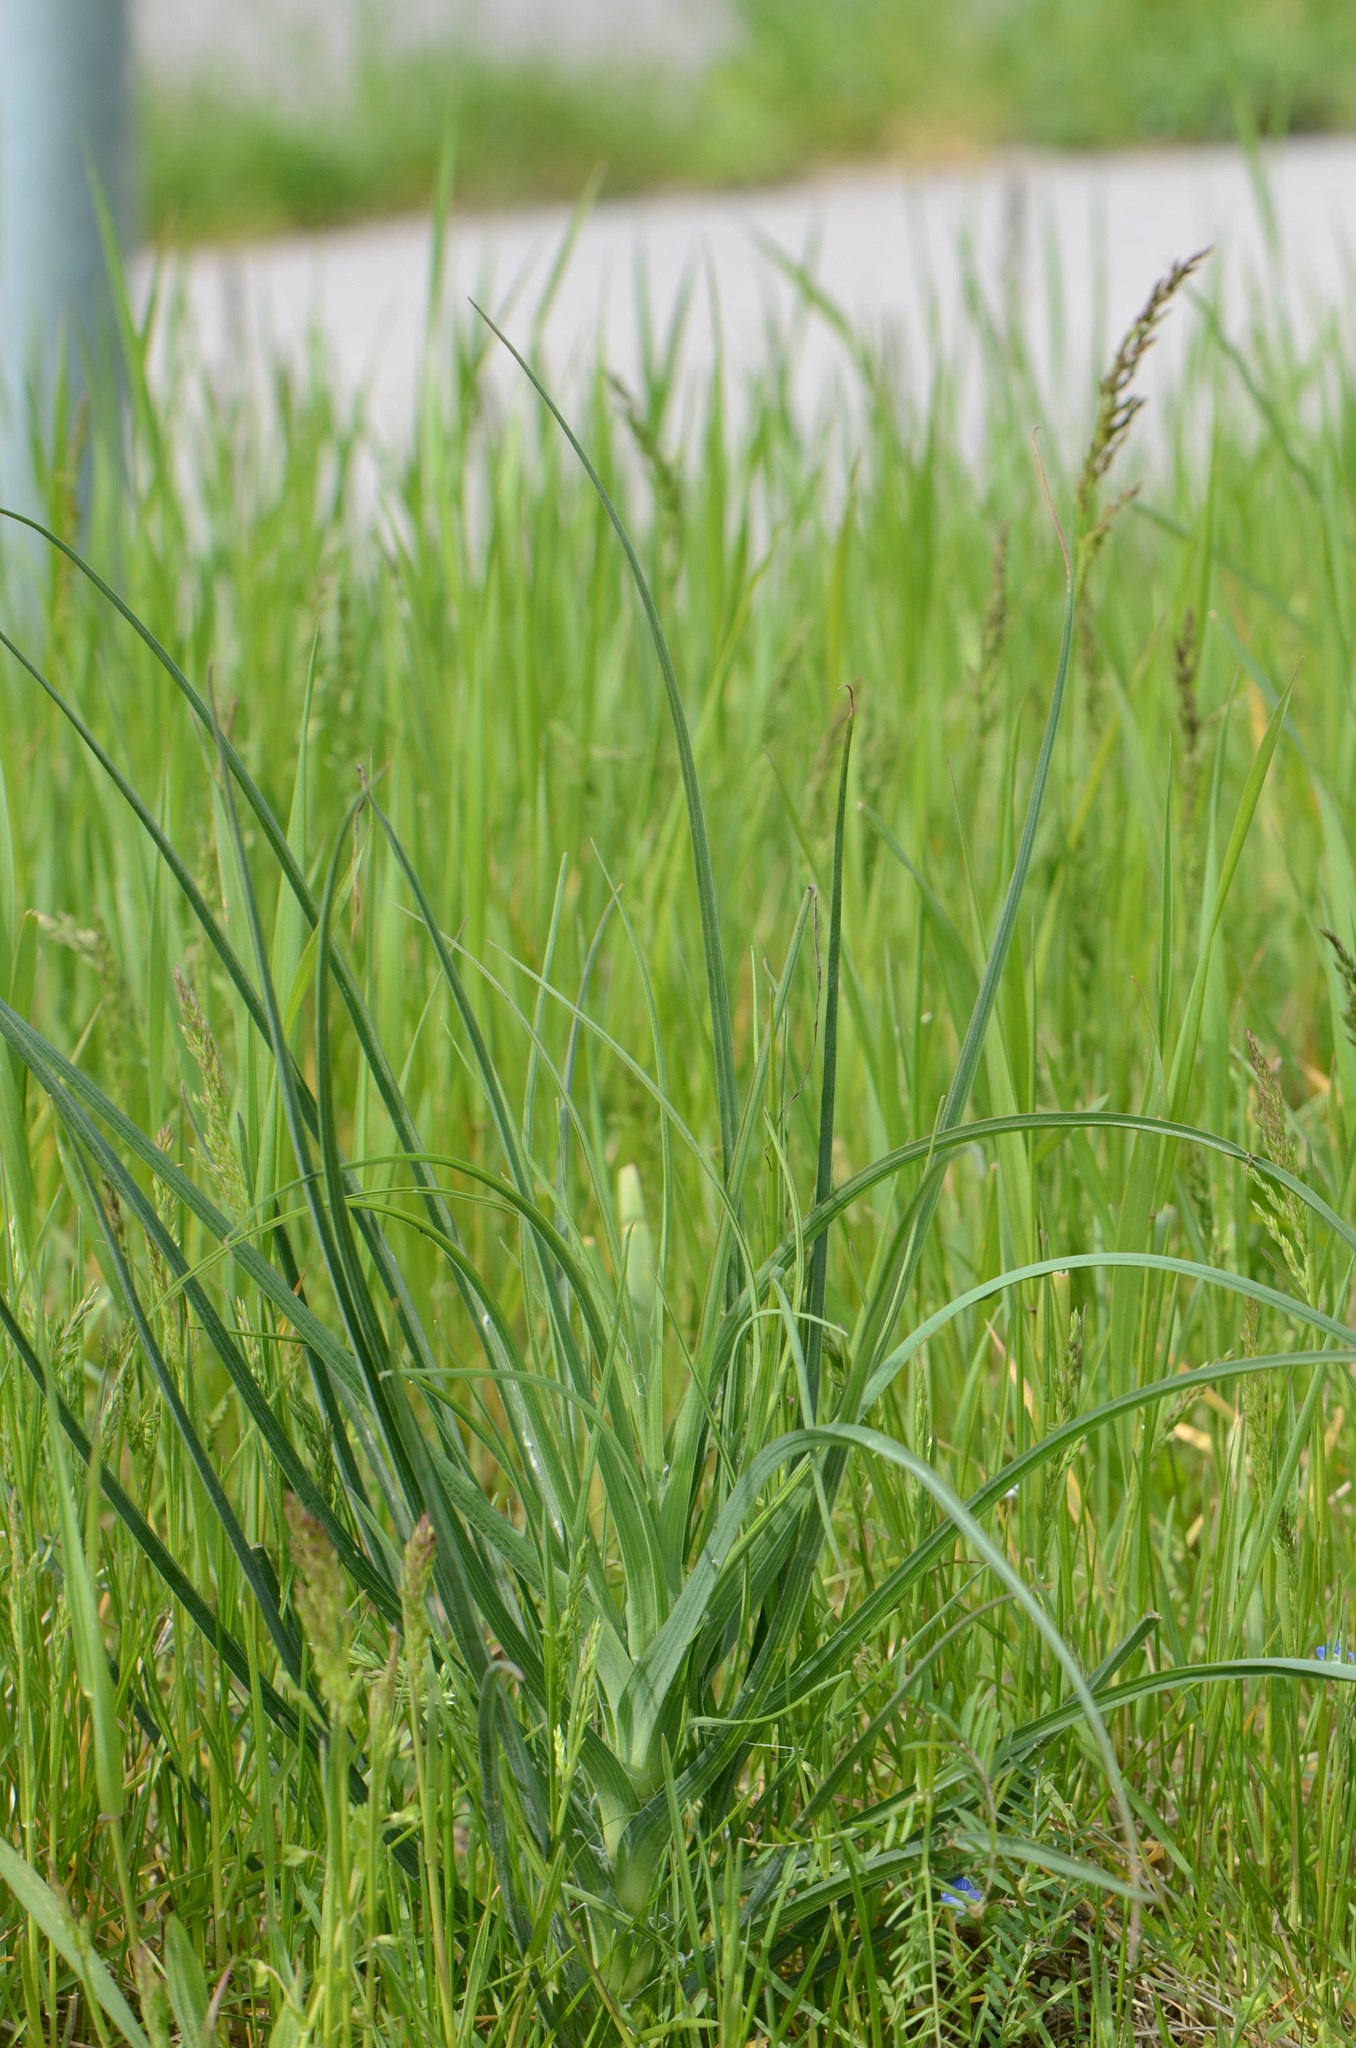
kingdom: Plantae
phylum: Tracheophyta
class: Magnoliopsida
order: Asterales
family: Asteraceae
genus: Tragopogon
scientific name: Tragopogon dubius
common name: Yellow salsify
